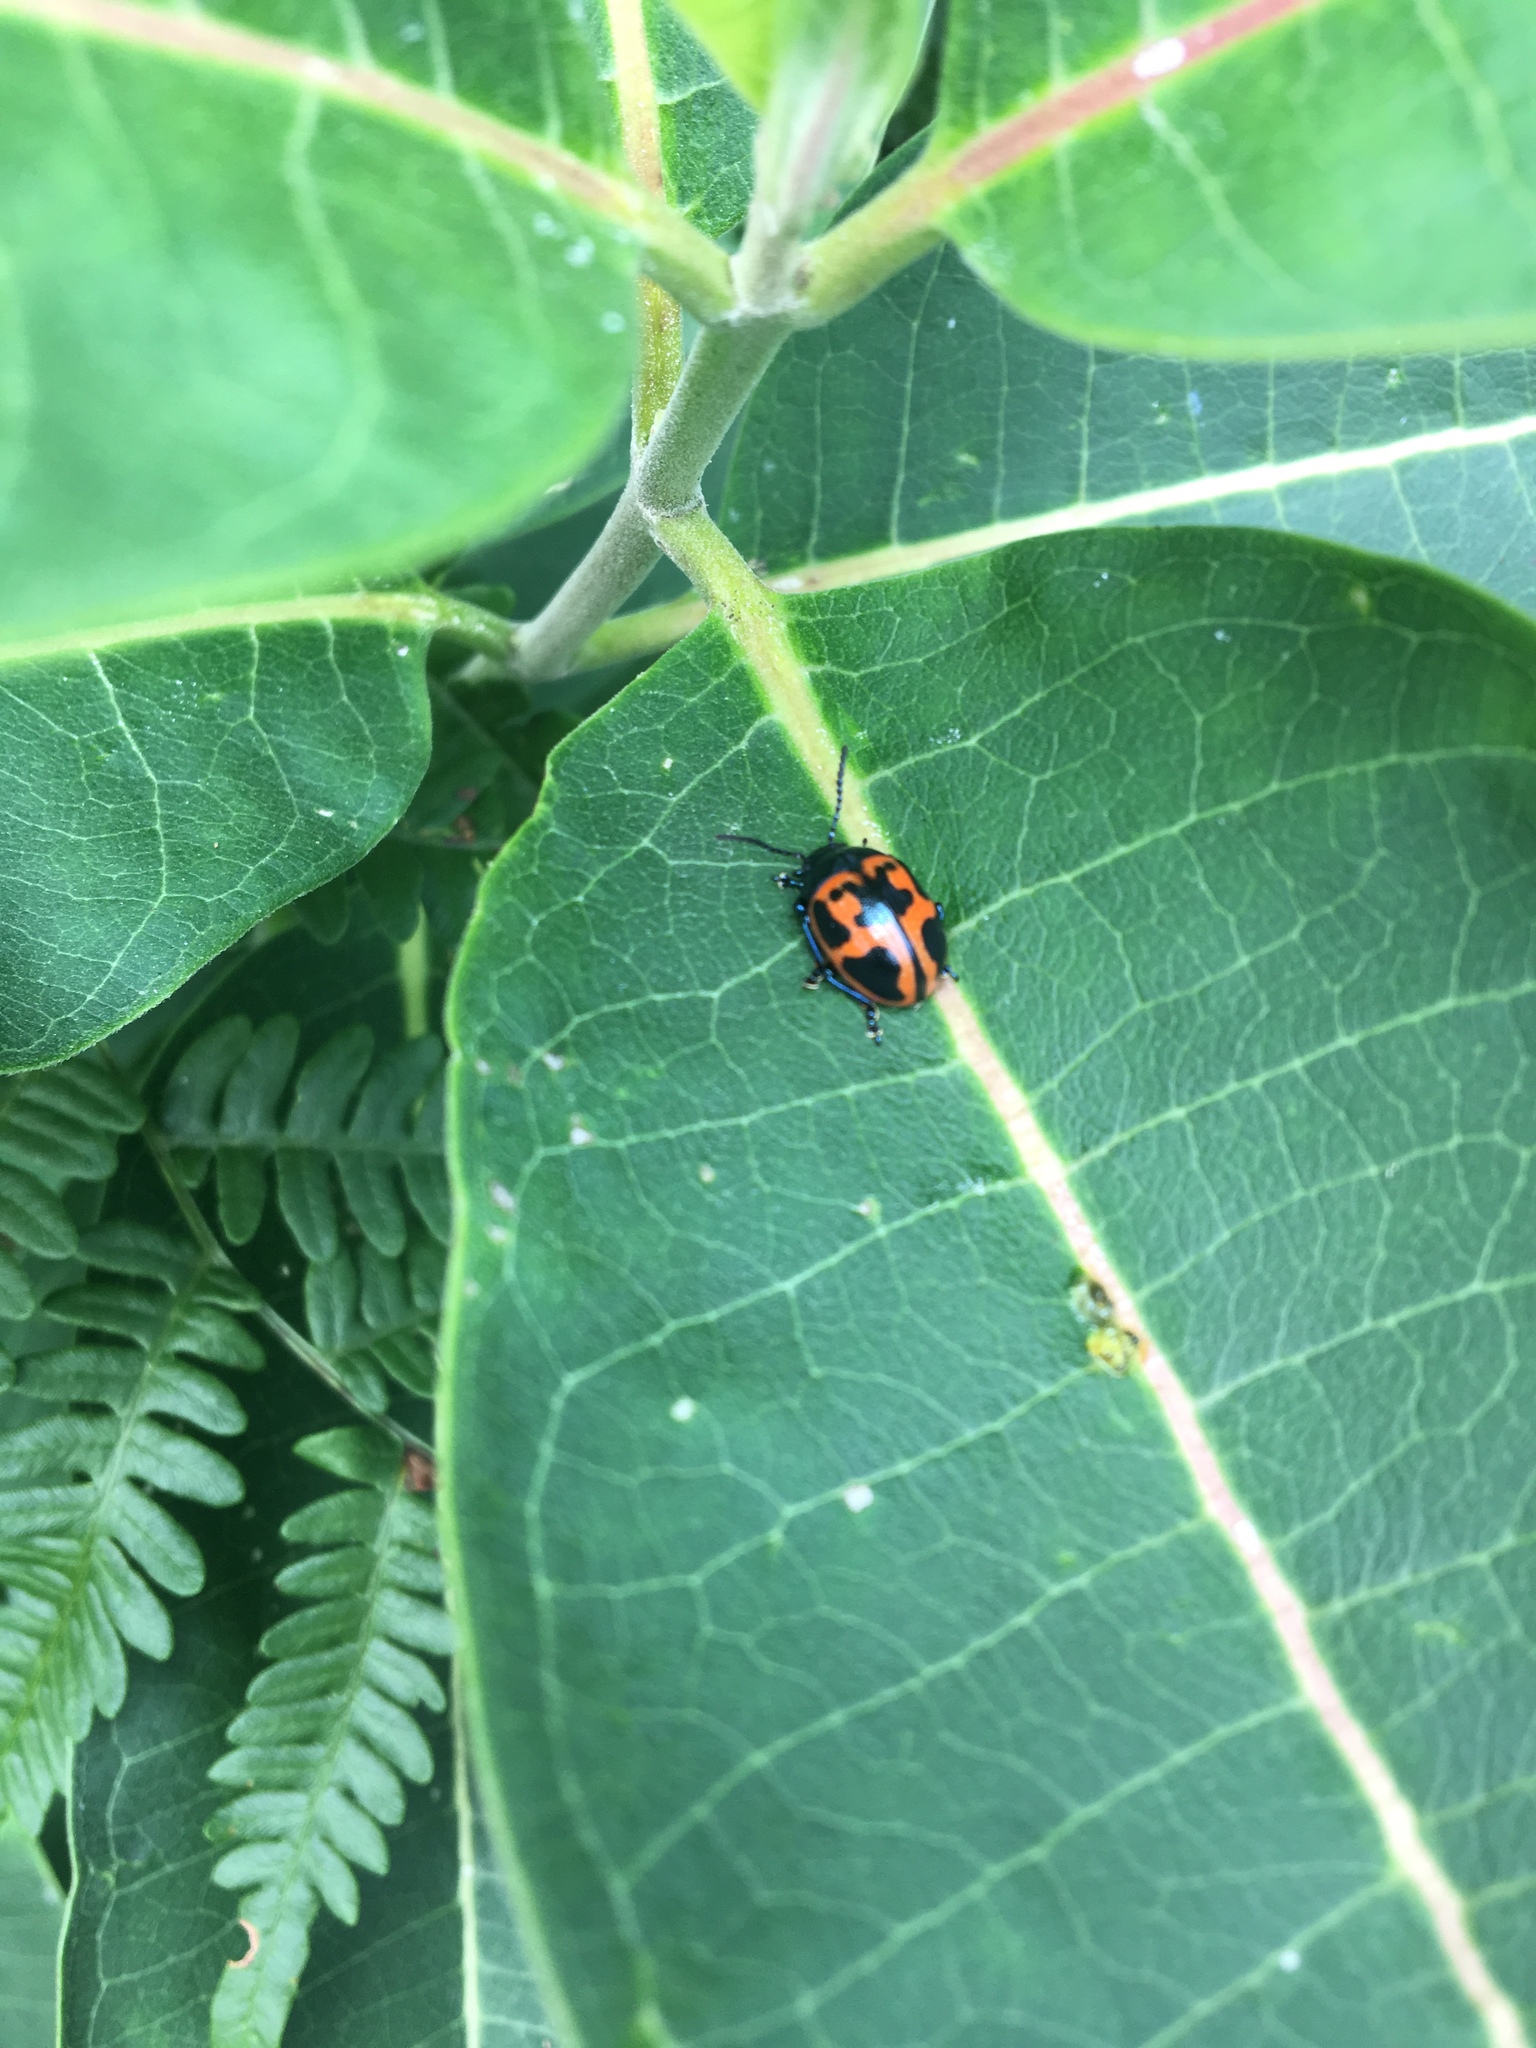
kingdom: Animalia
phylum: Arthropoda
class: Insecta
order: Coleoptera
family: Chrysomelidae
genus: Labidomera
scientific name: Labidomera clivicollis
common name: Swamp milkweed leaf beetle
